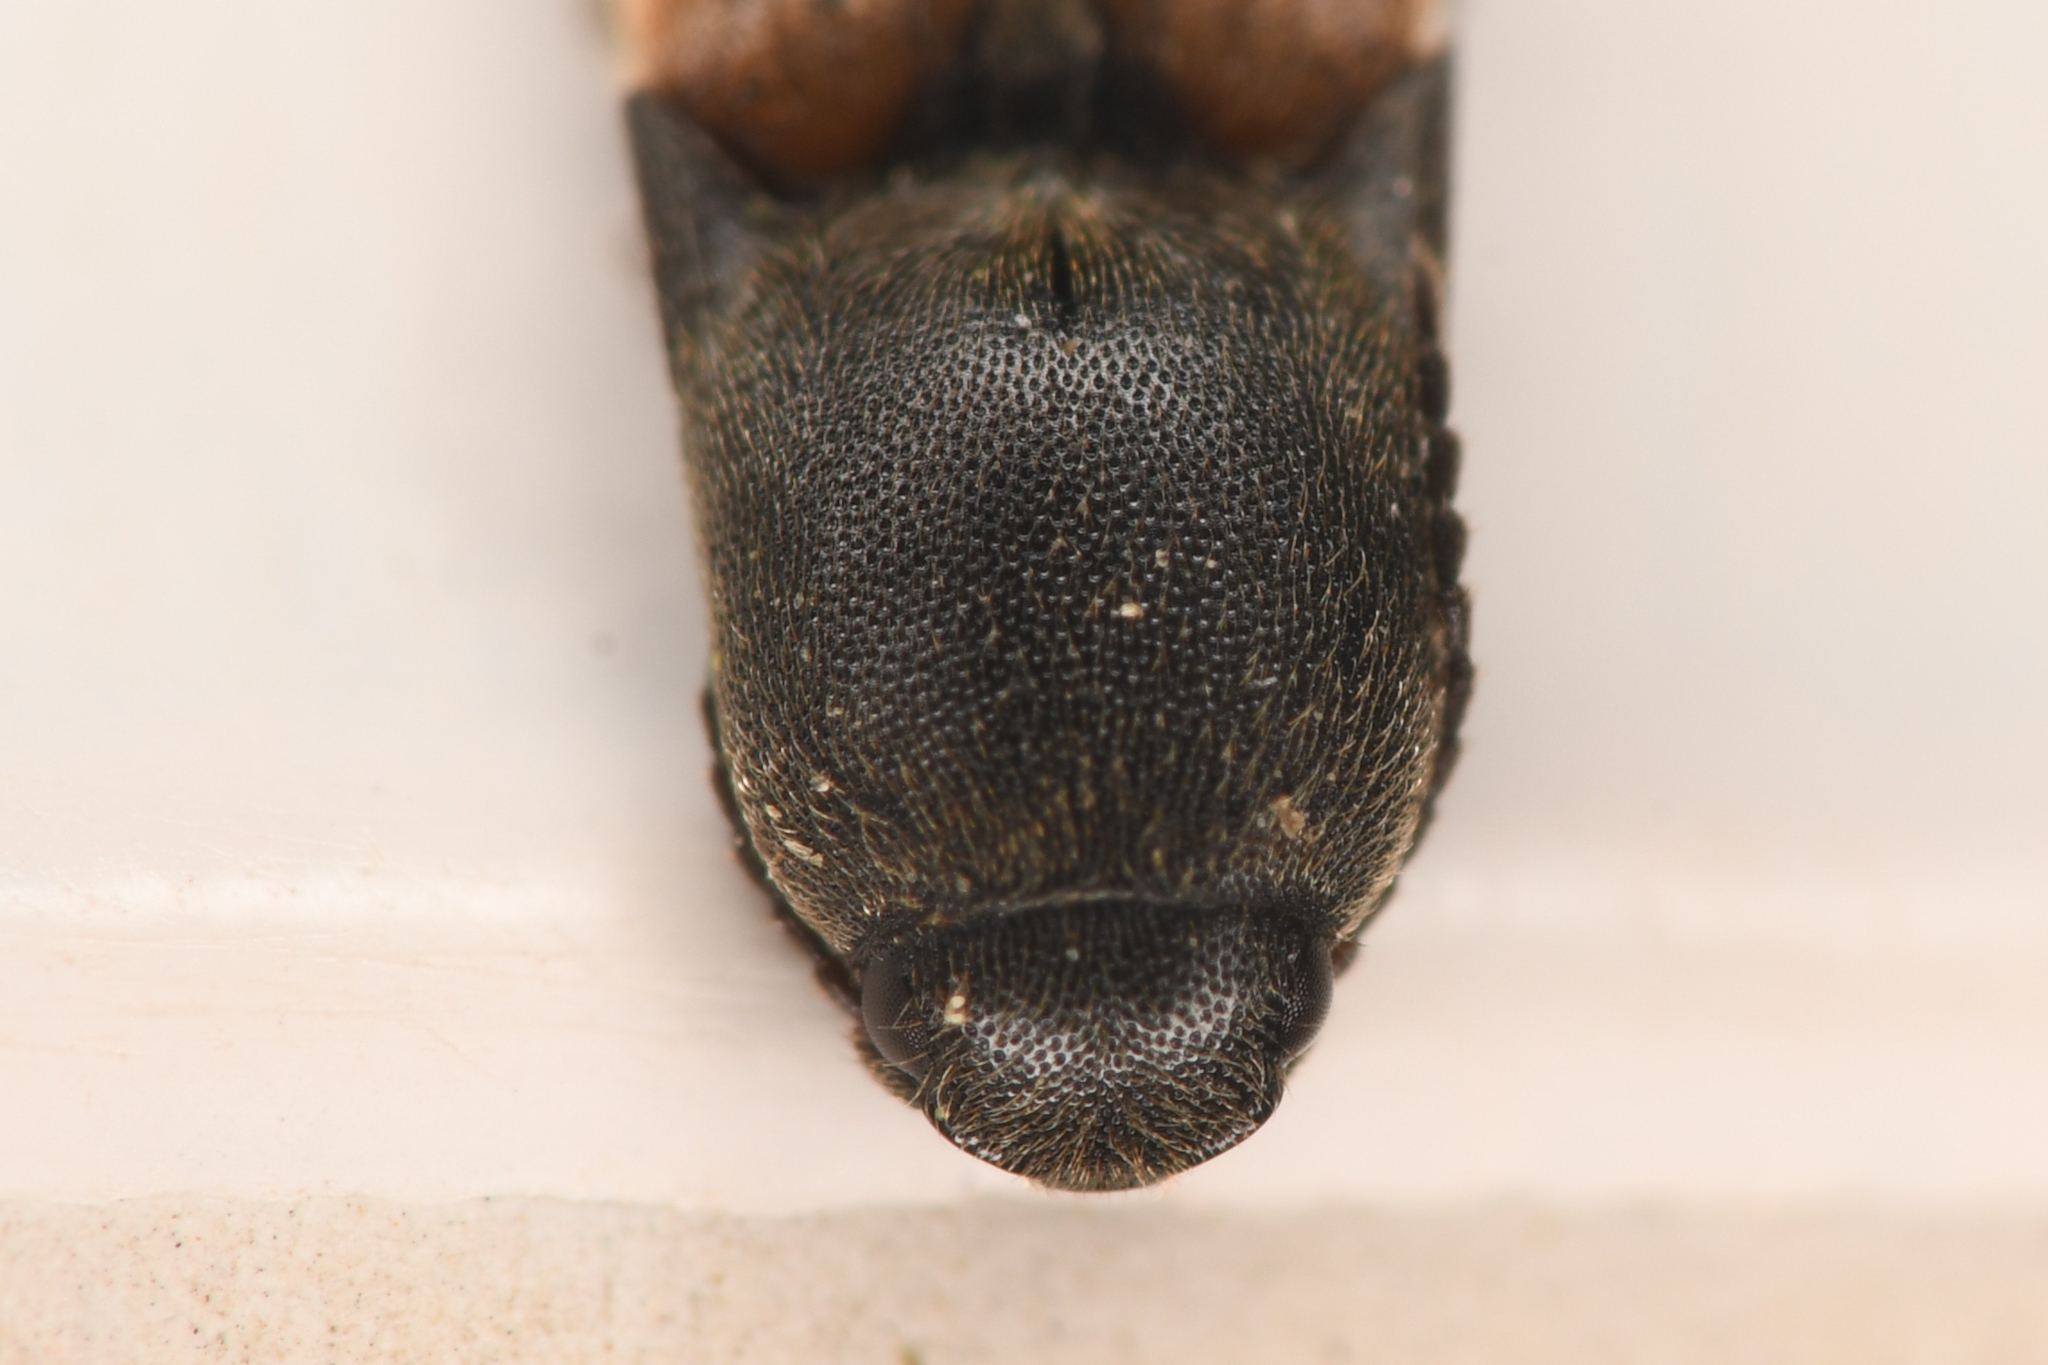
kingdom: Animalia
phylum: Arthropoda
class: Insecta
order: Coleoptera
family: Elateridae
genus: Agriotes
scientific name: Agriotes apicalis
